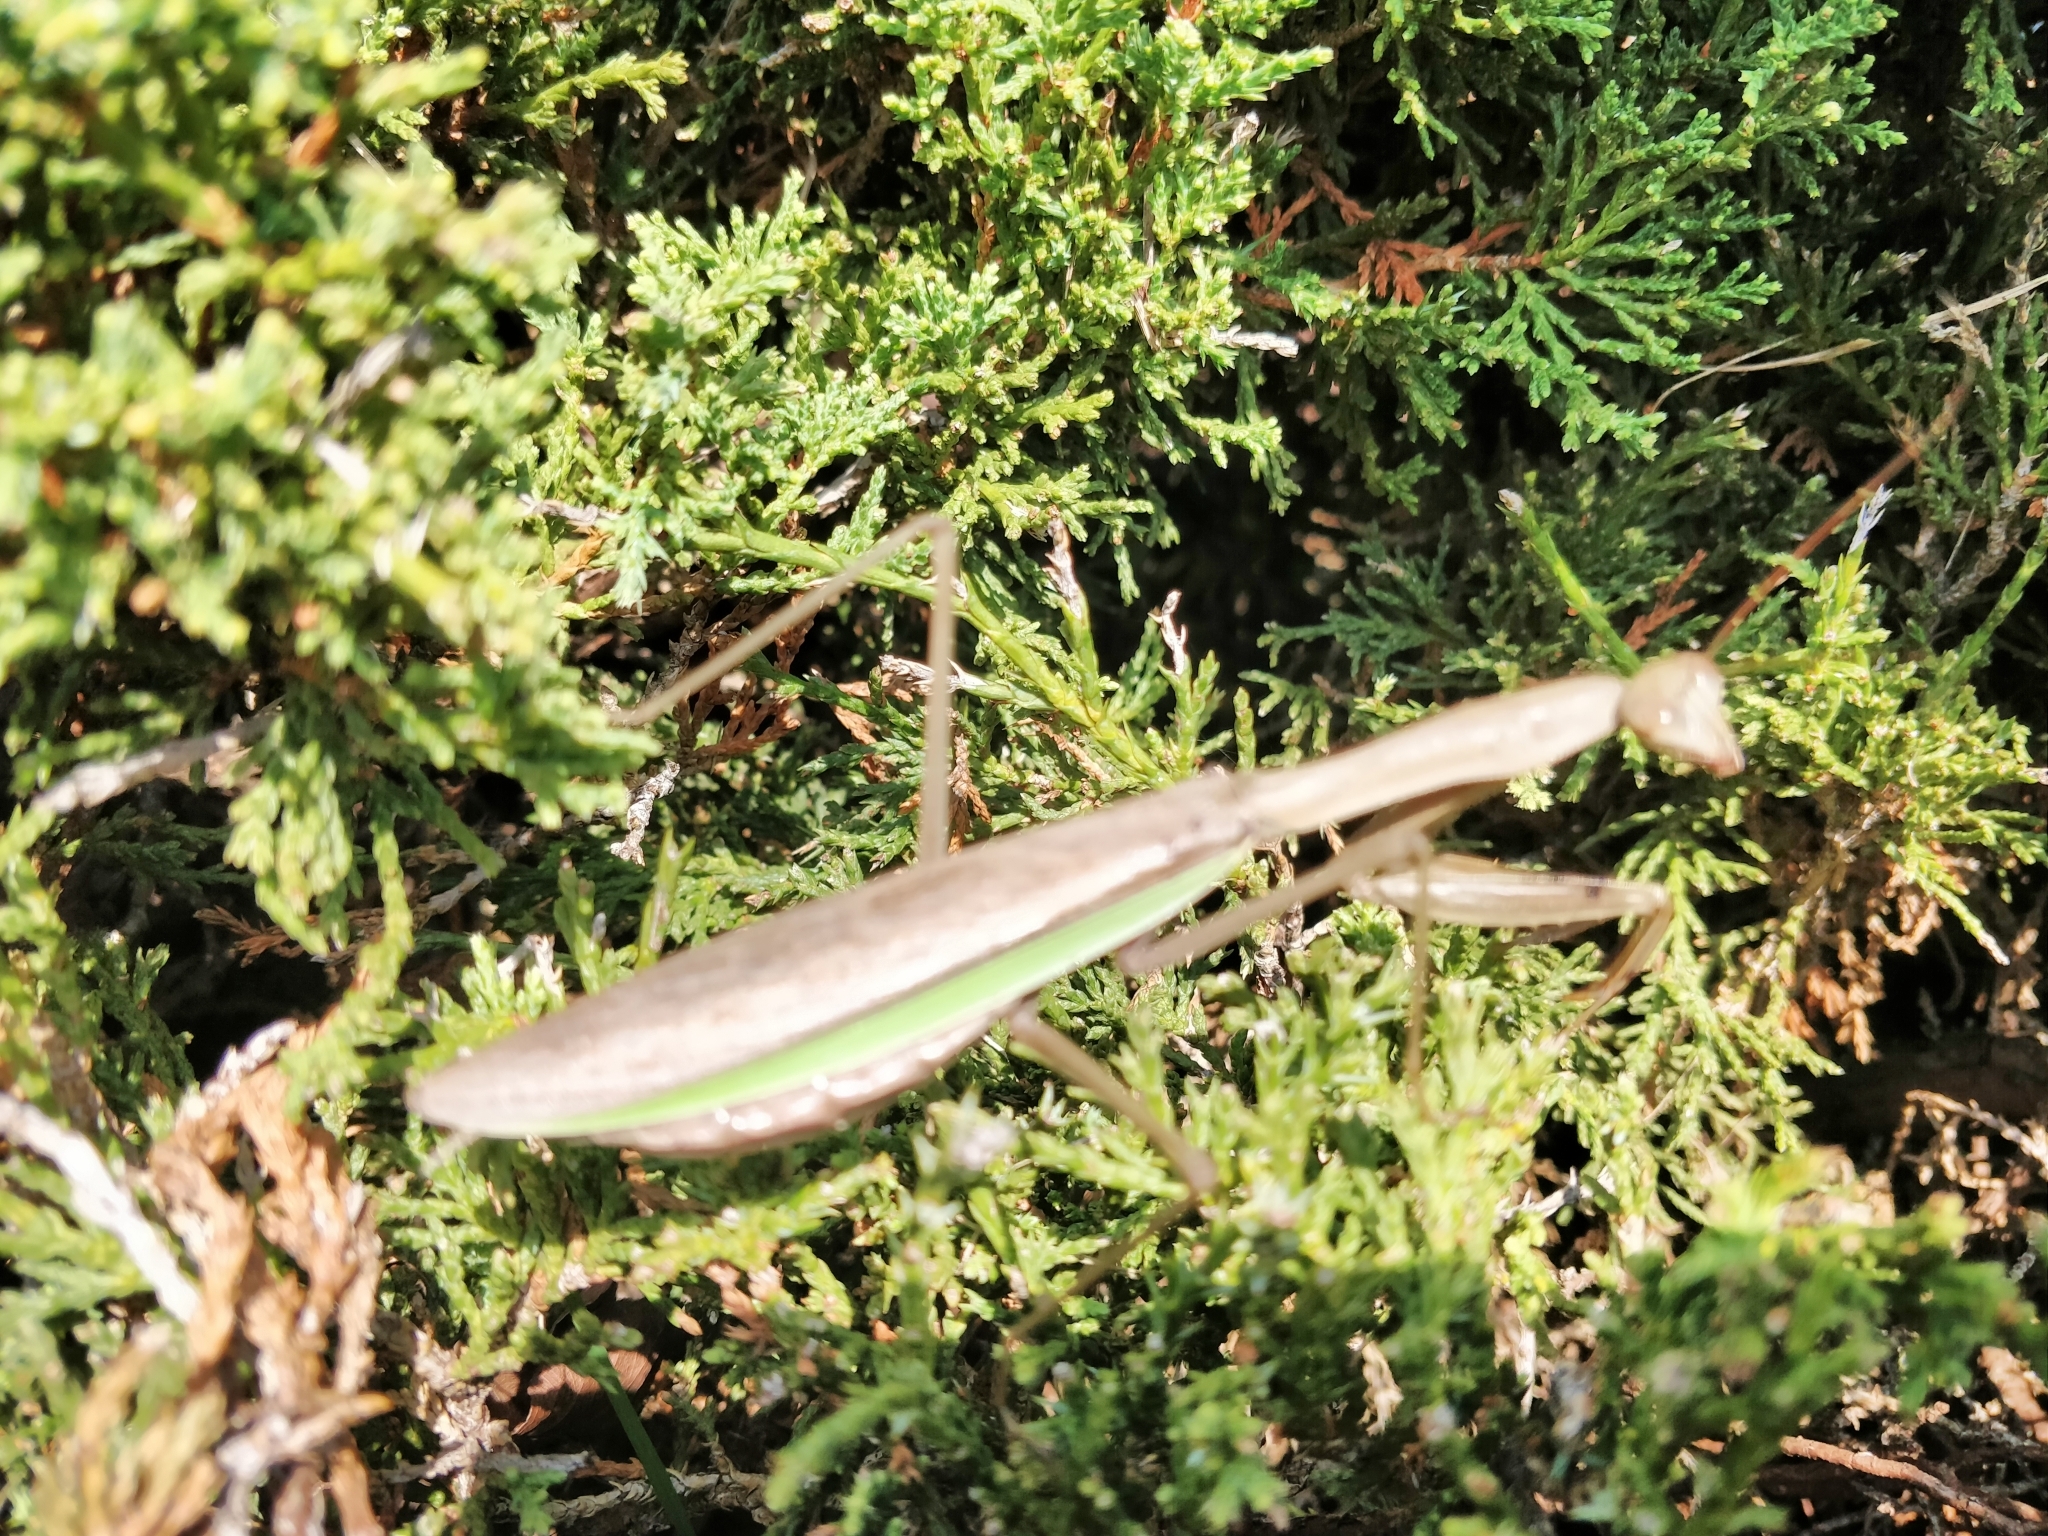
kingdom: Animalia
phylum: Arthropoda
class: Insecta
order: Mantodea
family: Mantidae
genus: Tenodera
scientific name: Tenodera sinensis
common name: Chinese mantis
